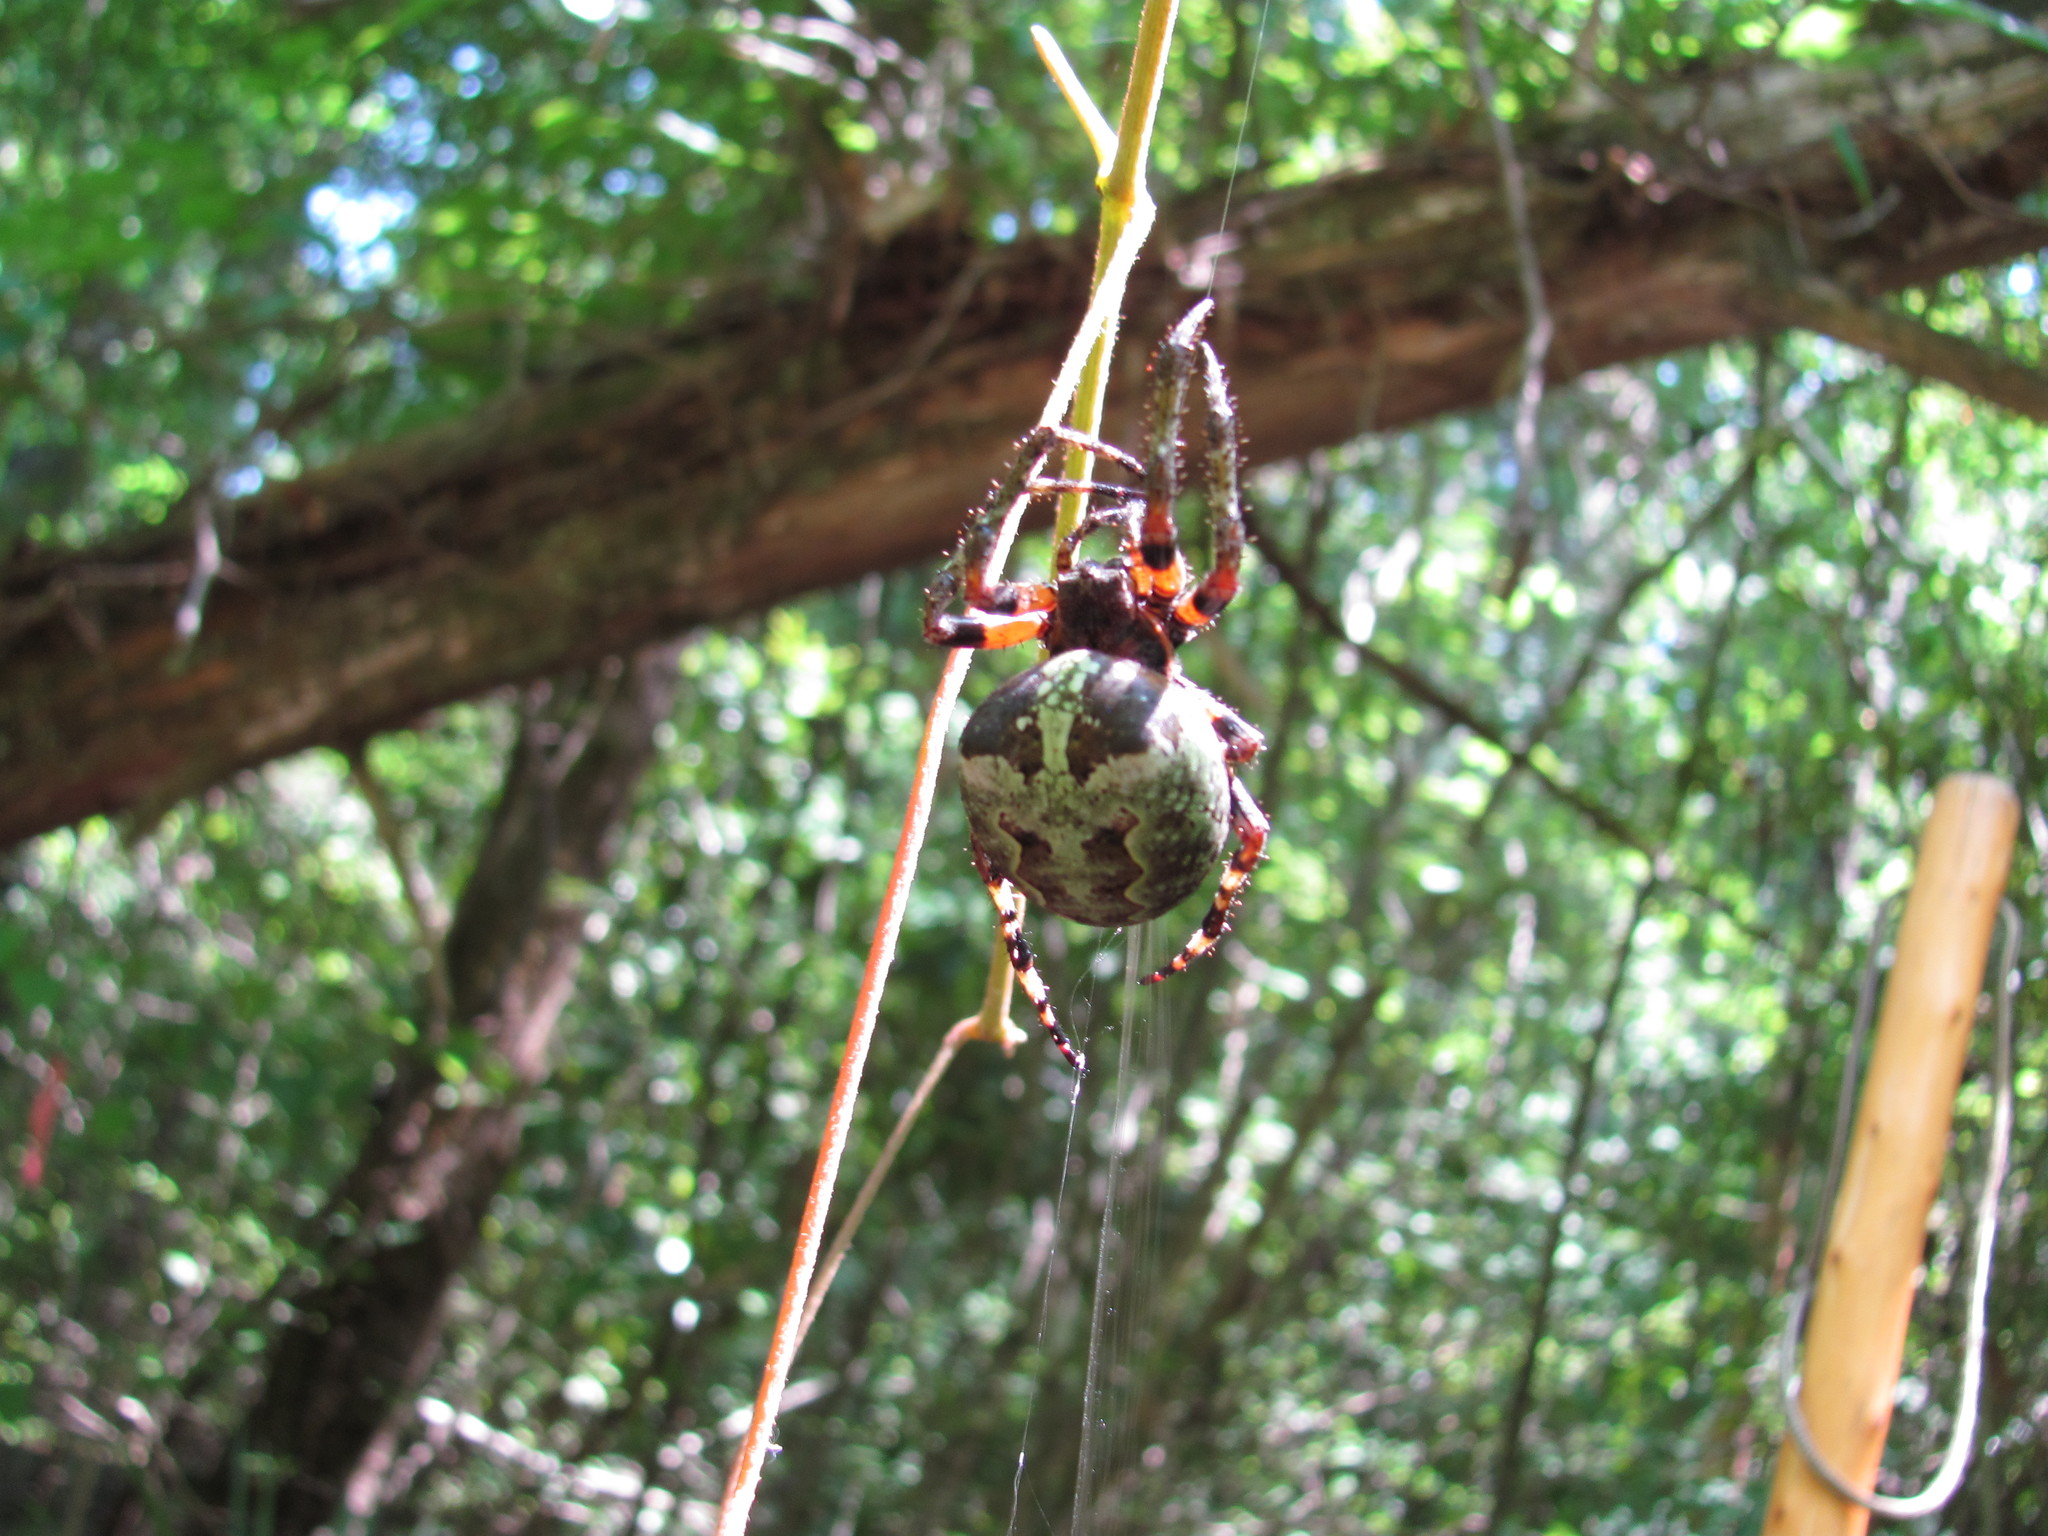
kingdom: Animalia
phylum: Arthropoda
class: Arachnida
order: Araneae
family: Araneidae
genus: Araneus
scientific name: Araneus bicentenarius
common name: Giant lichen orbweaver
